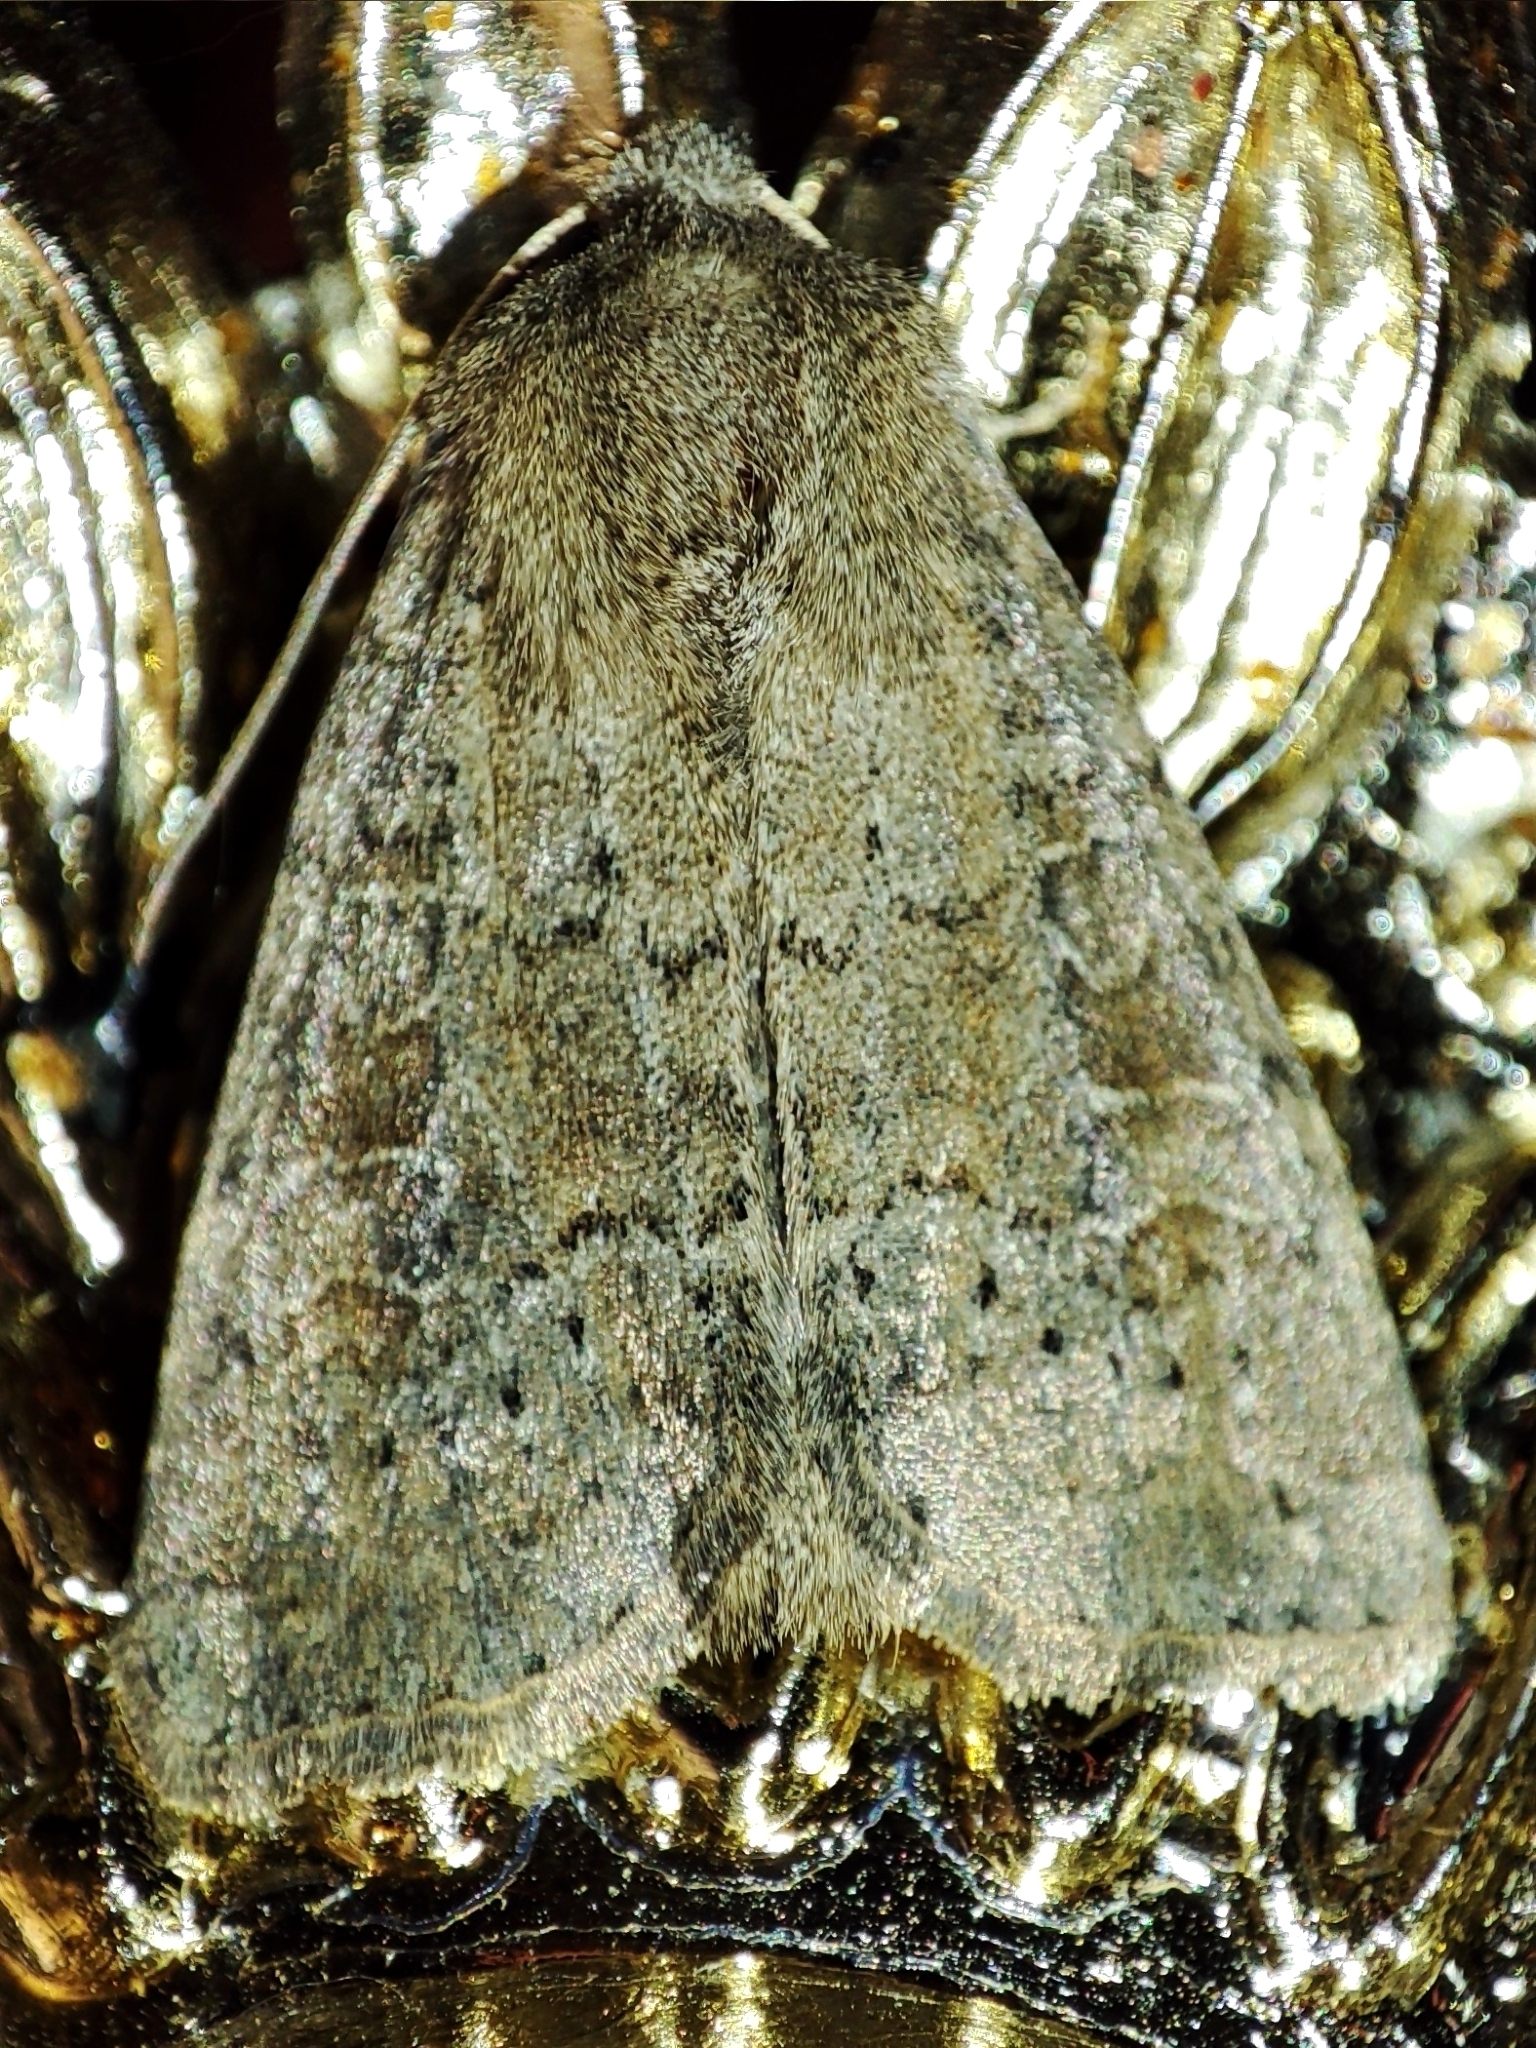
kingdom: Animalia
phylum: Arthropoda
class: Insecta
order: Lepidoptera
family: Noctuidae
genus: Parastichtis
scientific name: Parastichtis suspecta
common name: Suspected
